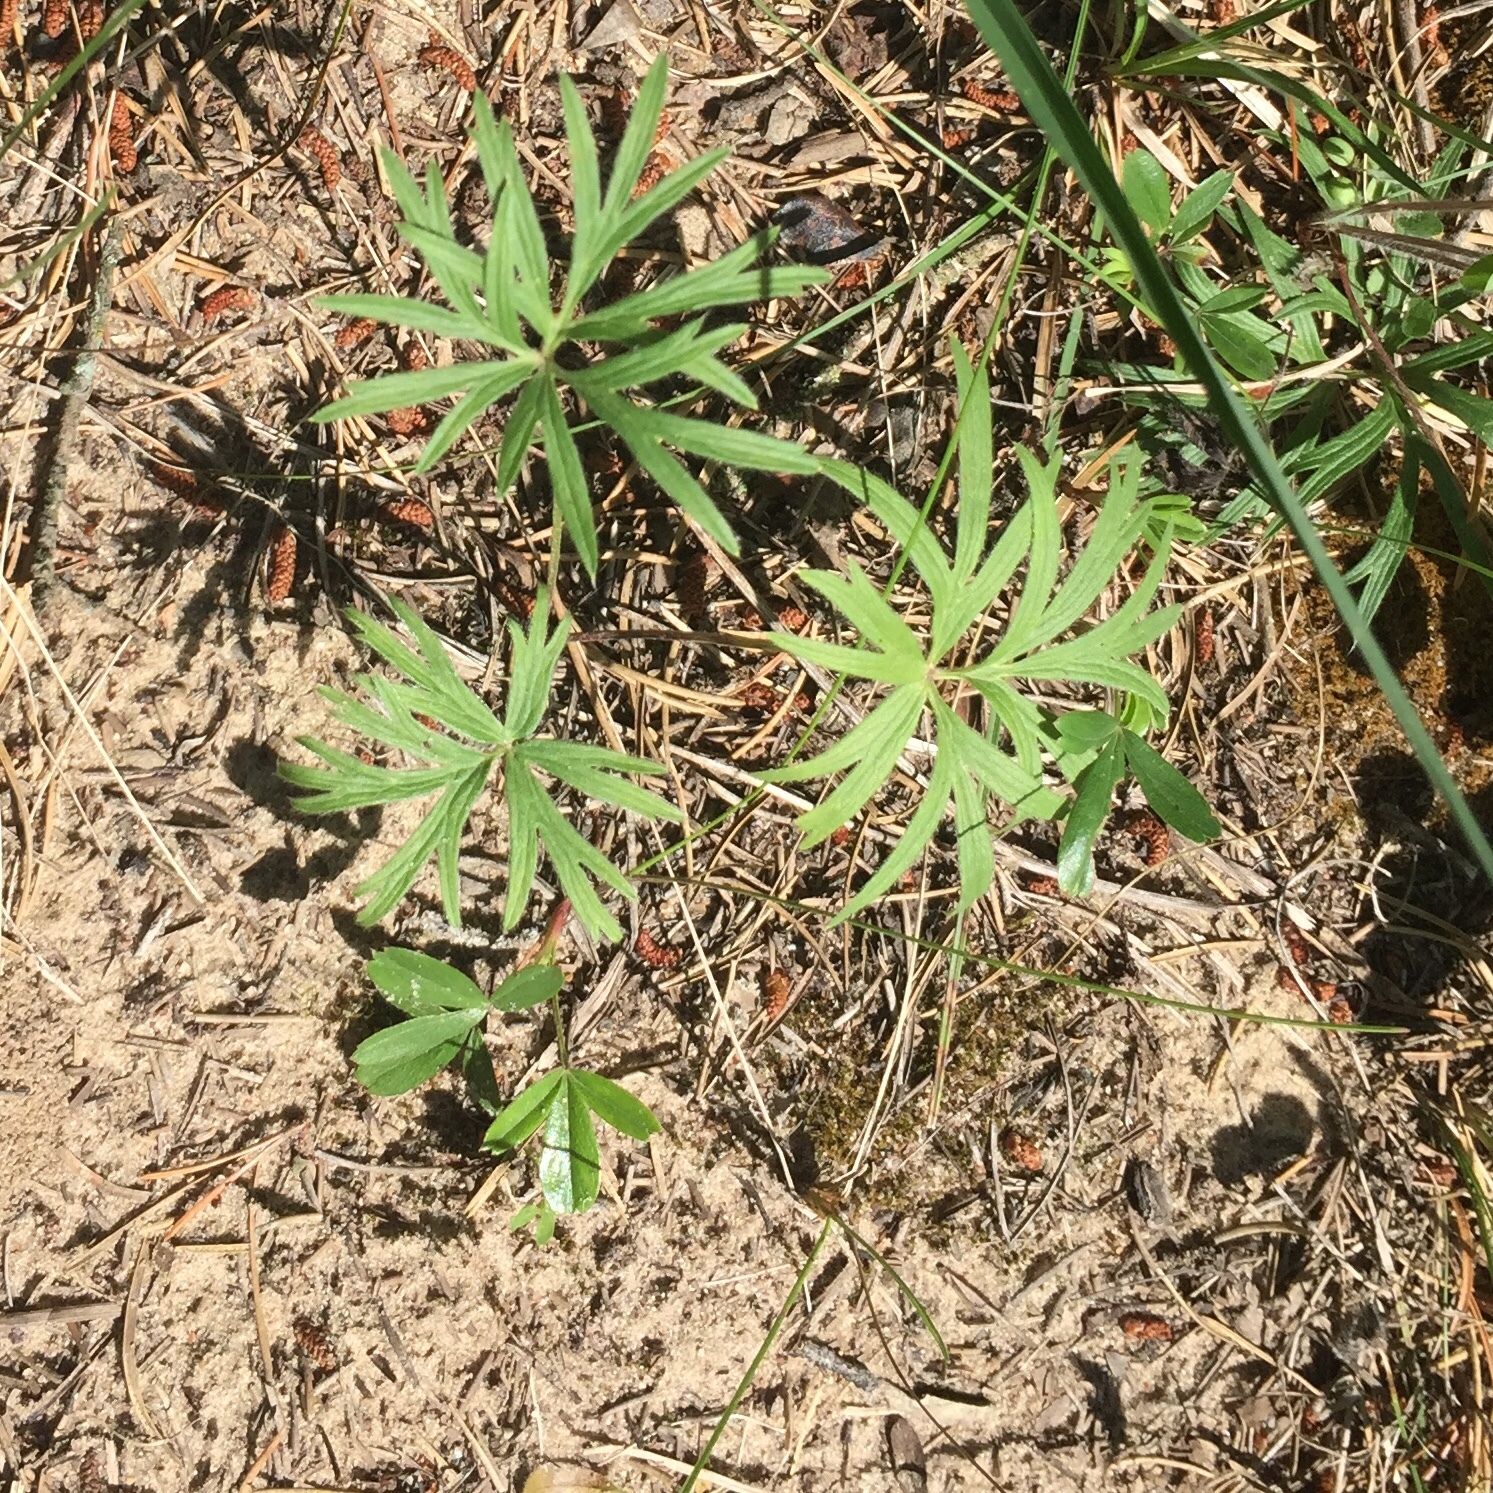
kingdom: Plantae
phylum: Tracheophyta
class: Magnoliopsida
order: Ranunculales
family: Ranunculaceae
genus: Pulsatilla
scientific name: Pulsatilla nuttalliana
